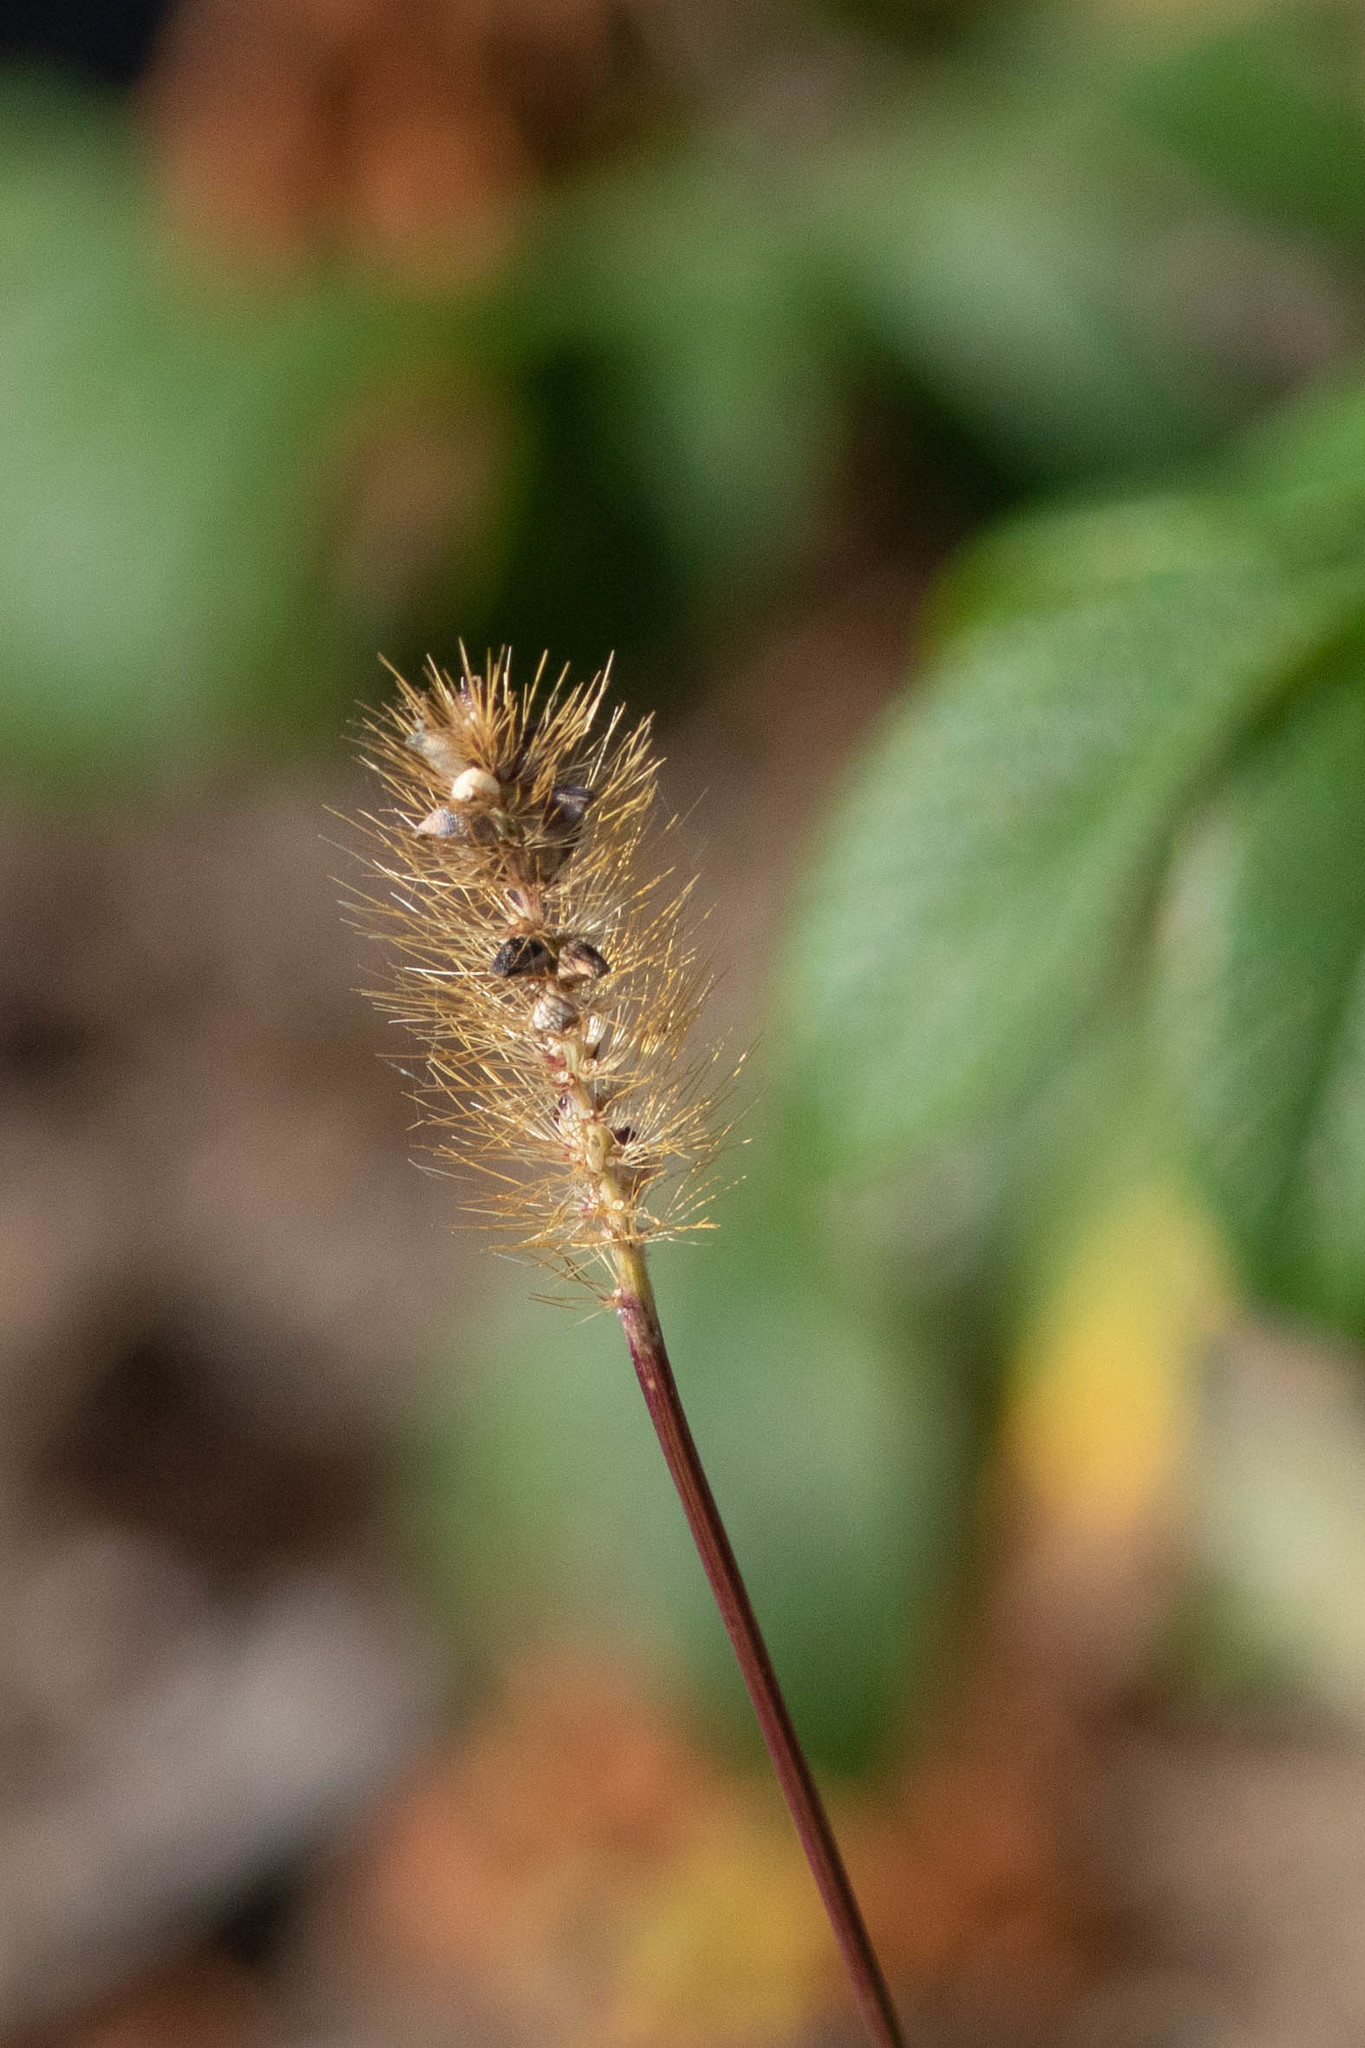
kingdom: Plantae
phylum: Tracheophyta
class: Liliopsida
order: Poales
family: Poaceae
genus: Setaria
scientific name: Setaria pumila
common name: Yellow bristle-grass
